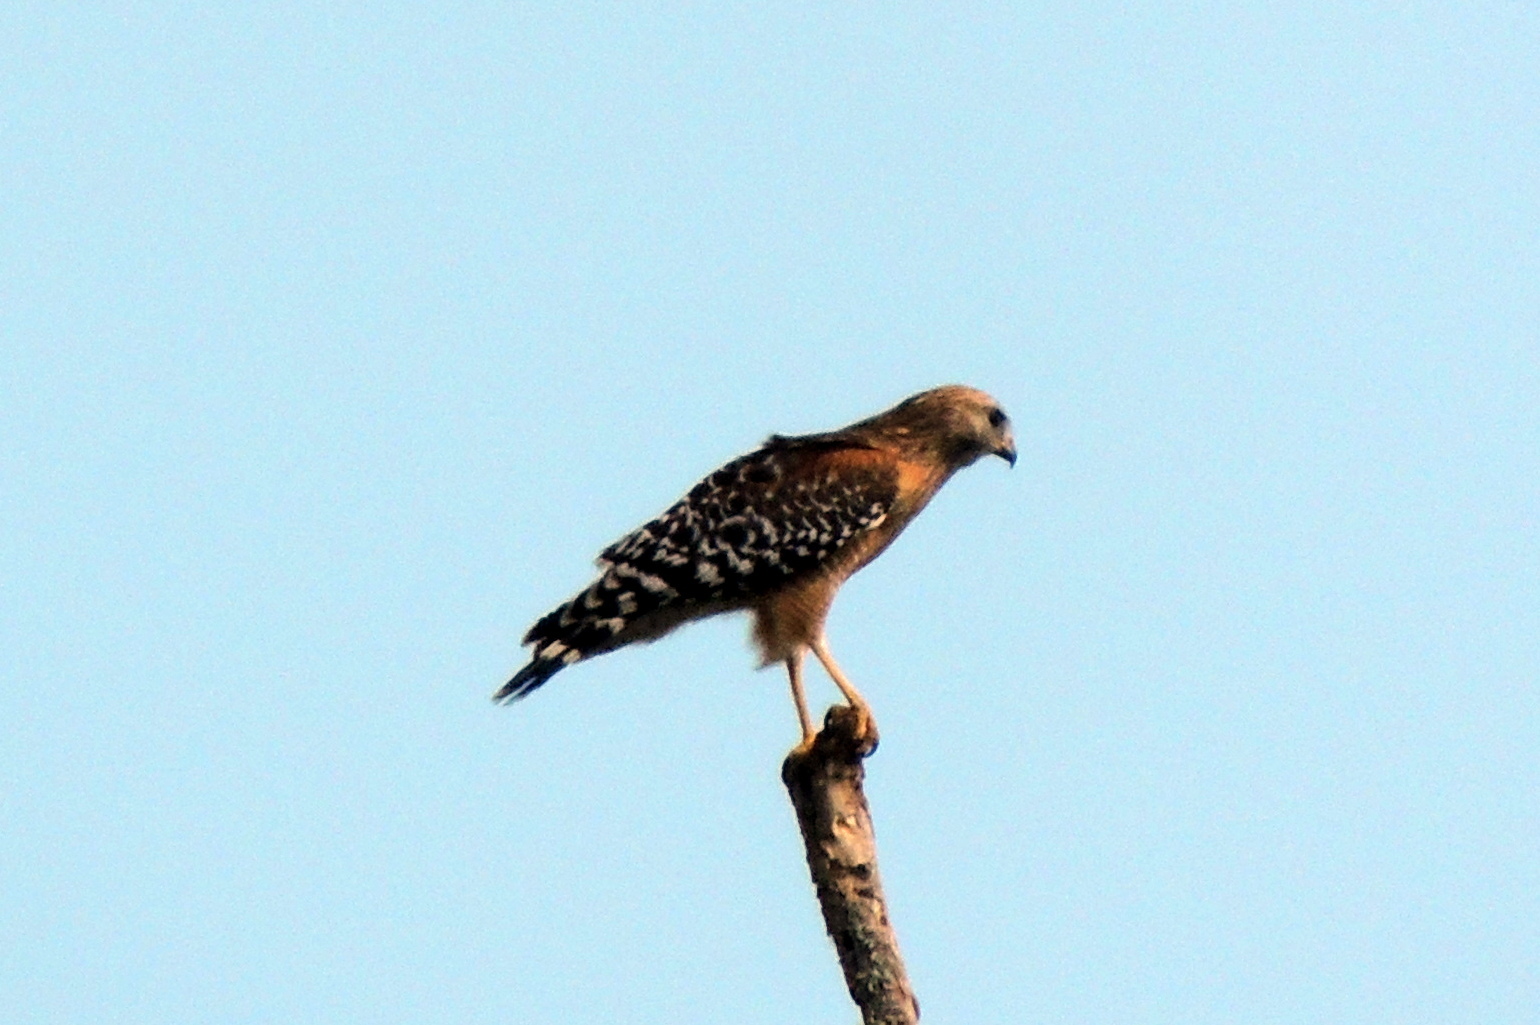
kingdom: Animalia
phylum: Chordata
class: Aves
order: Accipitriformes
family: Accipitridae
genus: Buteo
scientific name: Buteo lineatus
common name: Red-shouldered hawk
